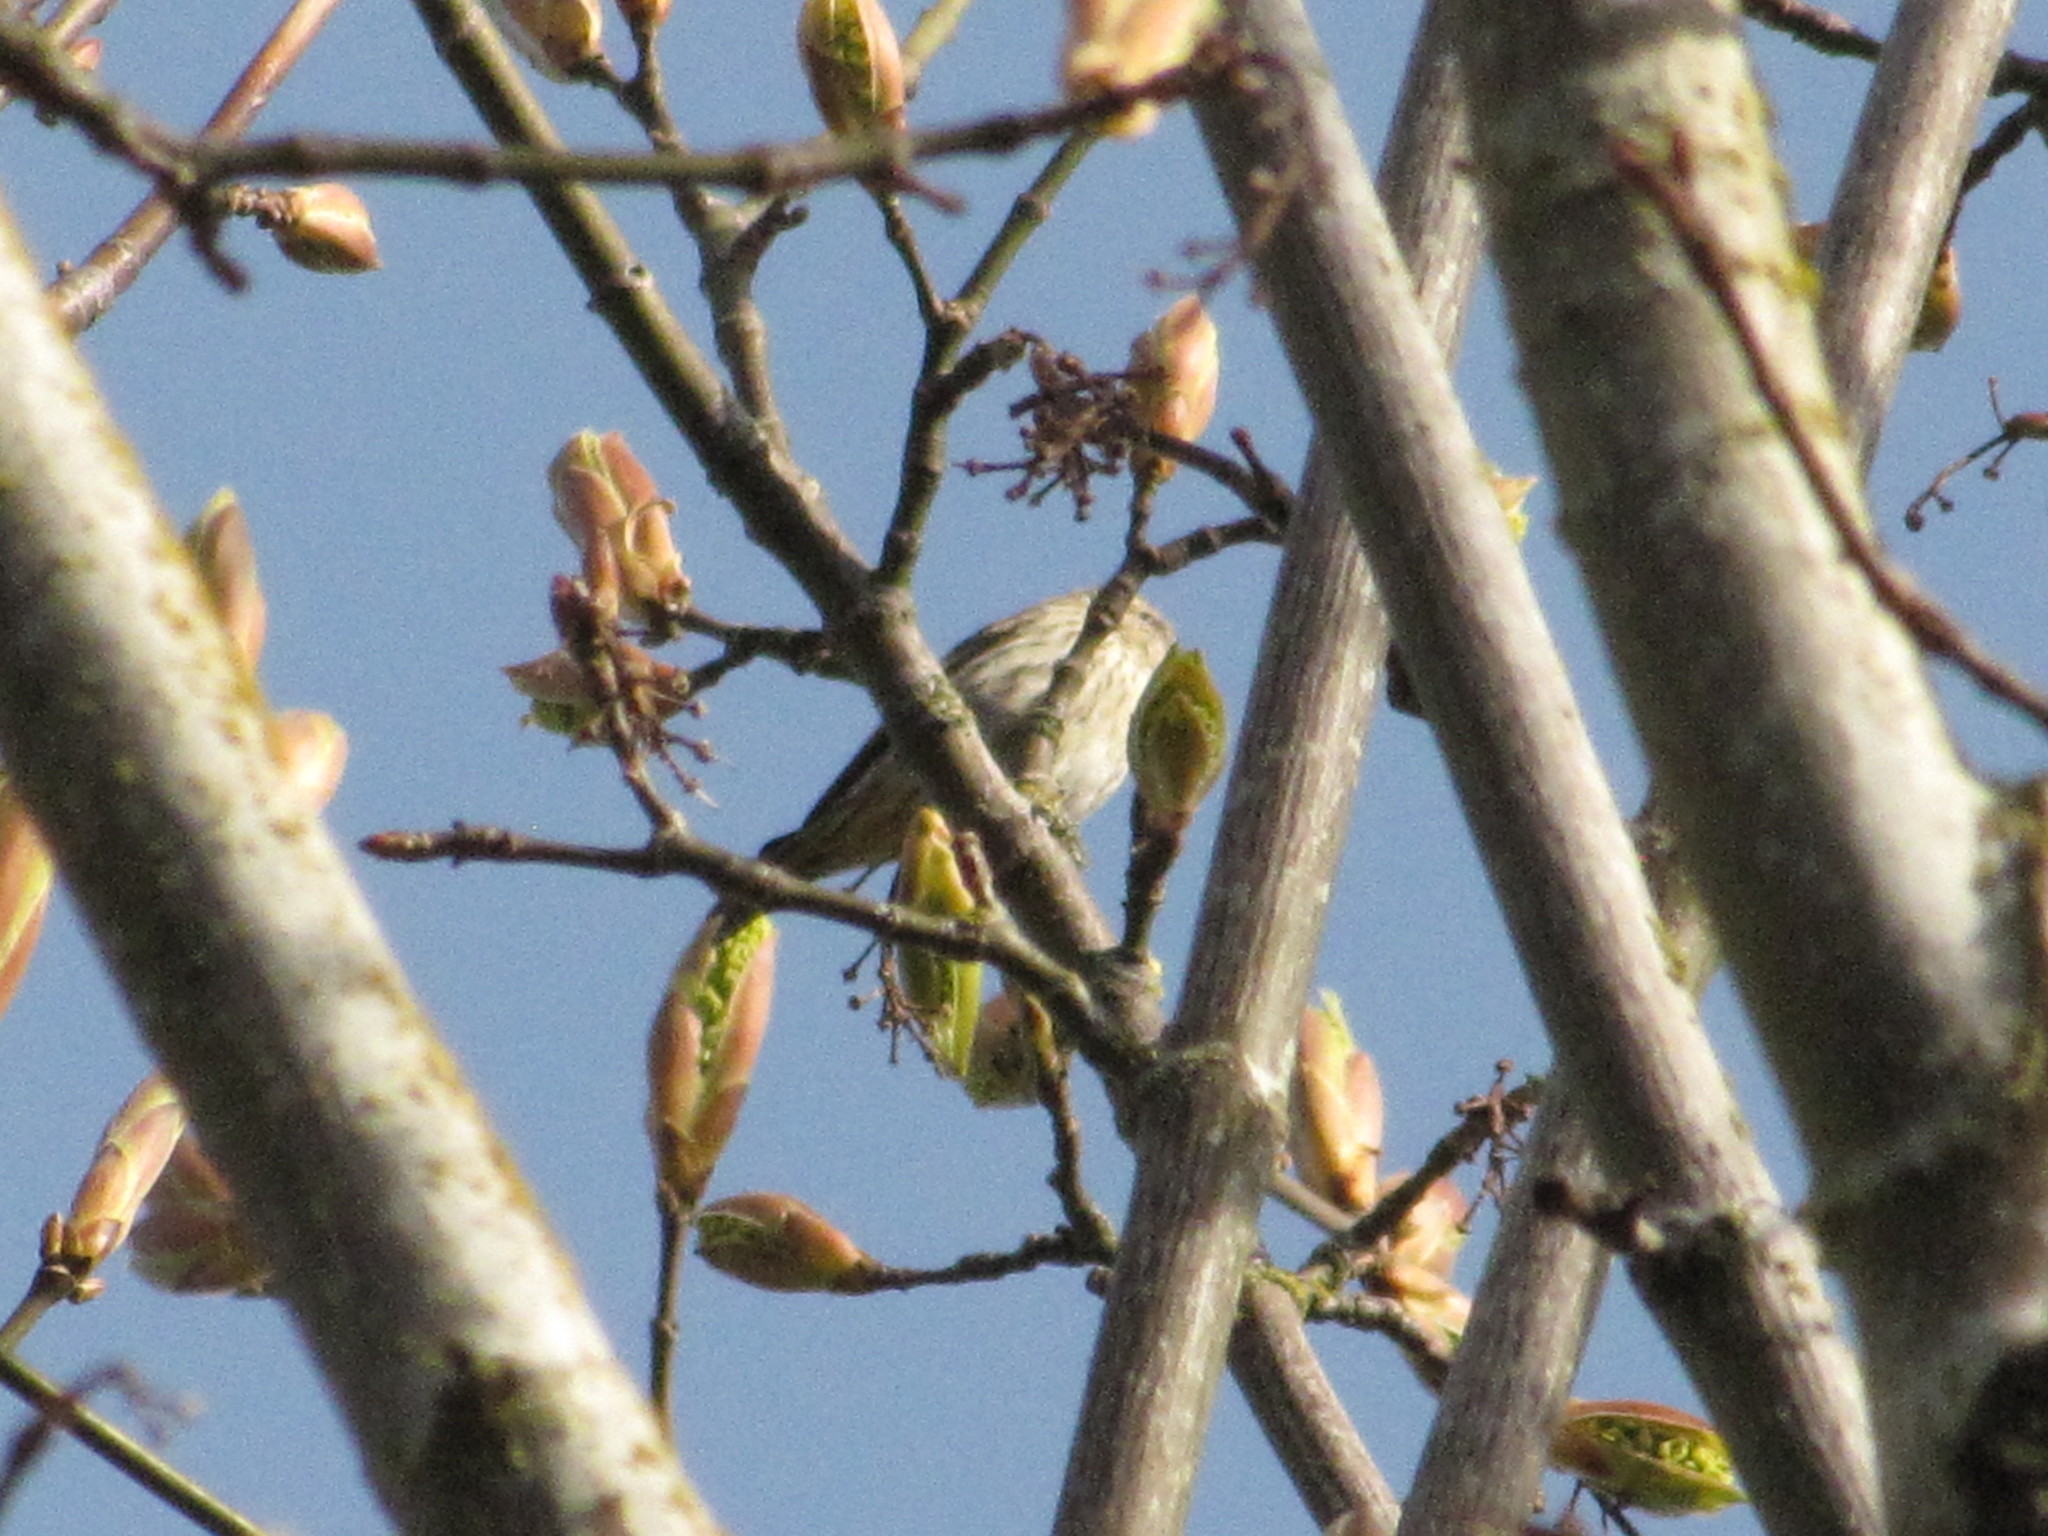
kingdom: Animalia
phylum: Chordata
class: Aves
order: Passeriformes
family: Fringillidae
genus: Spinus
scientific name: Spinus pinus
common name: Pine siskin
